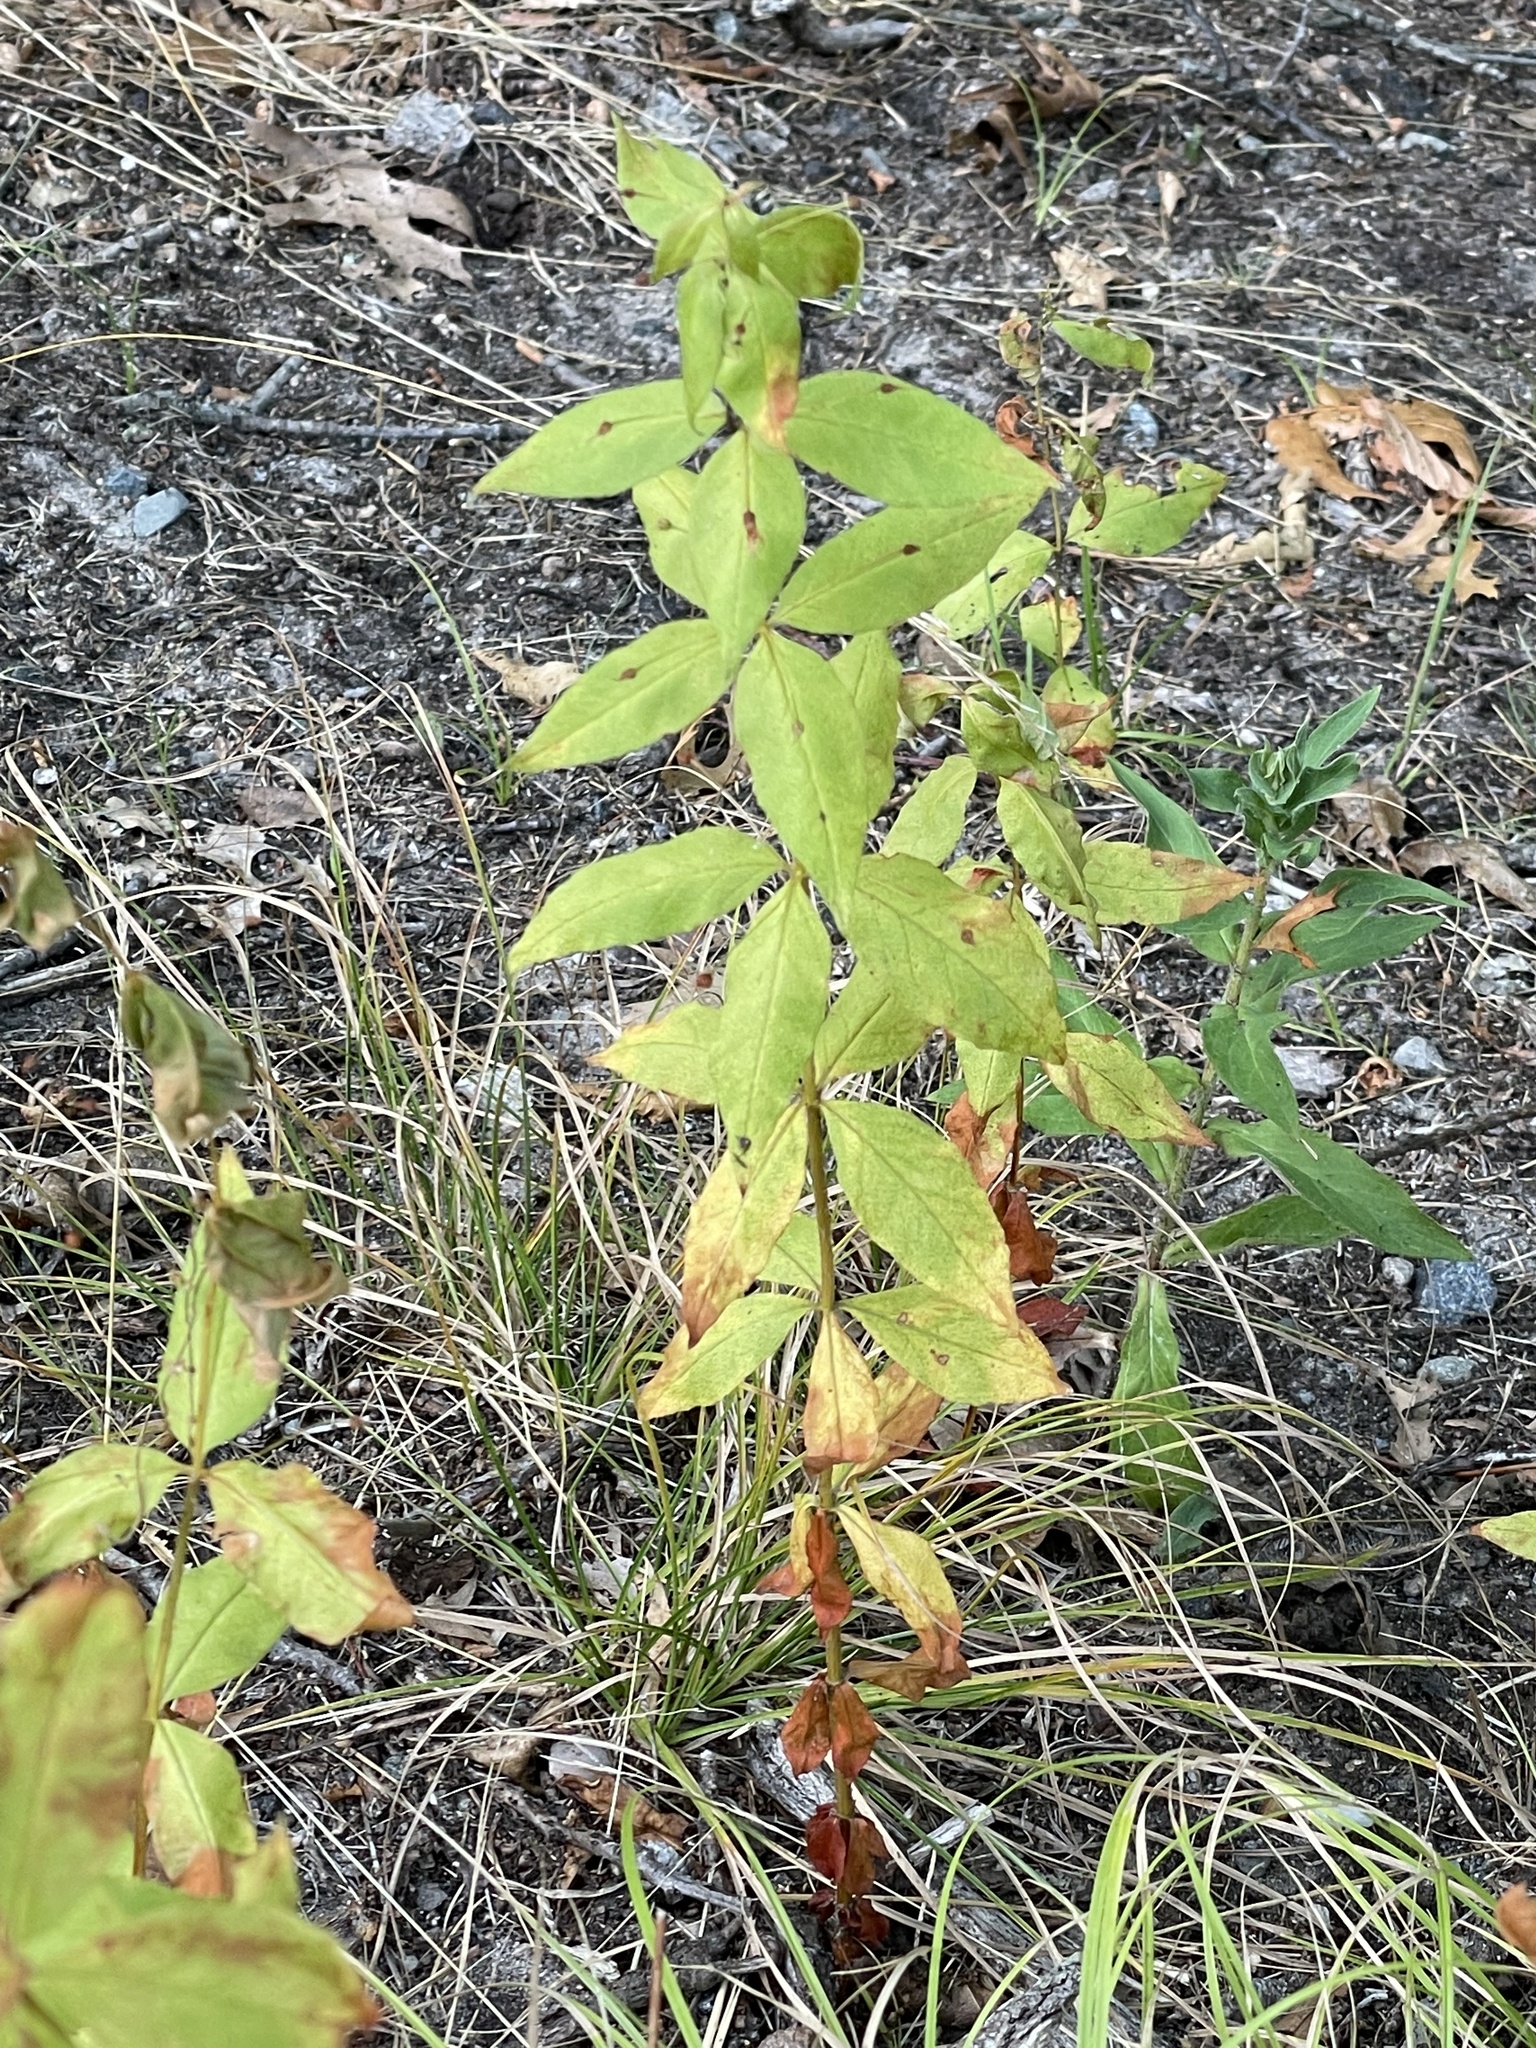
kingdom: Plantae
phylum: Tracheophyta
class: Magnoliopsida
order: Ericales
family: Primulaceae
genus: Lysimachia
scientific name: Lysimachia quadrifolia
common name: Whorled loosestrife
